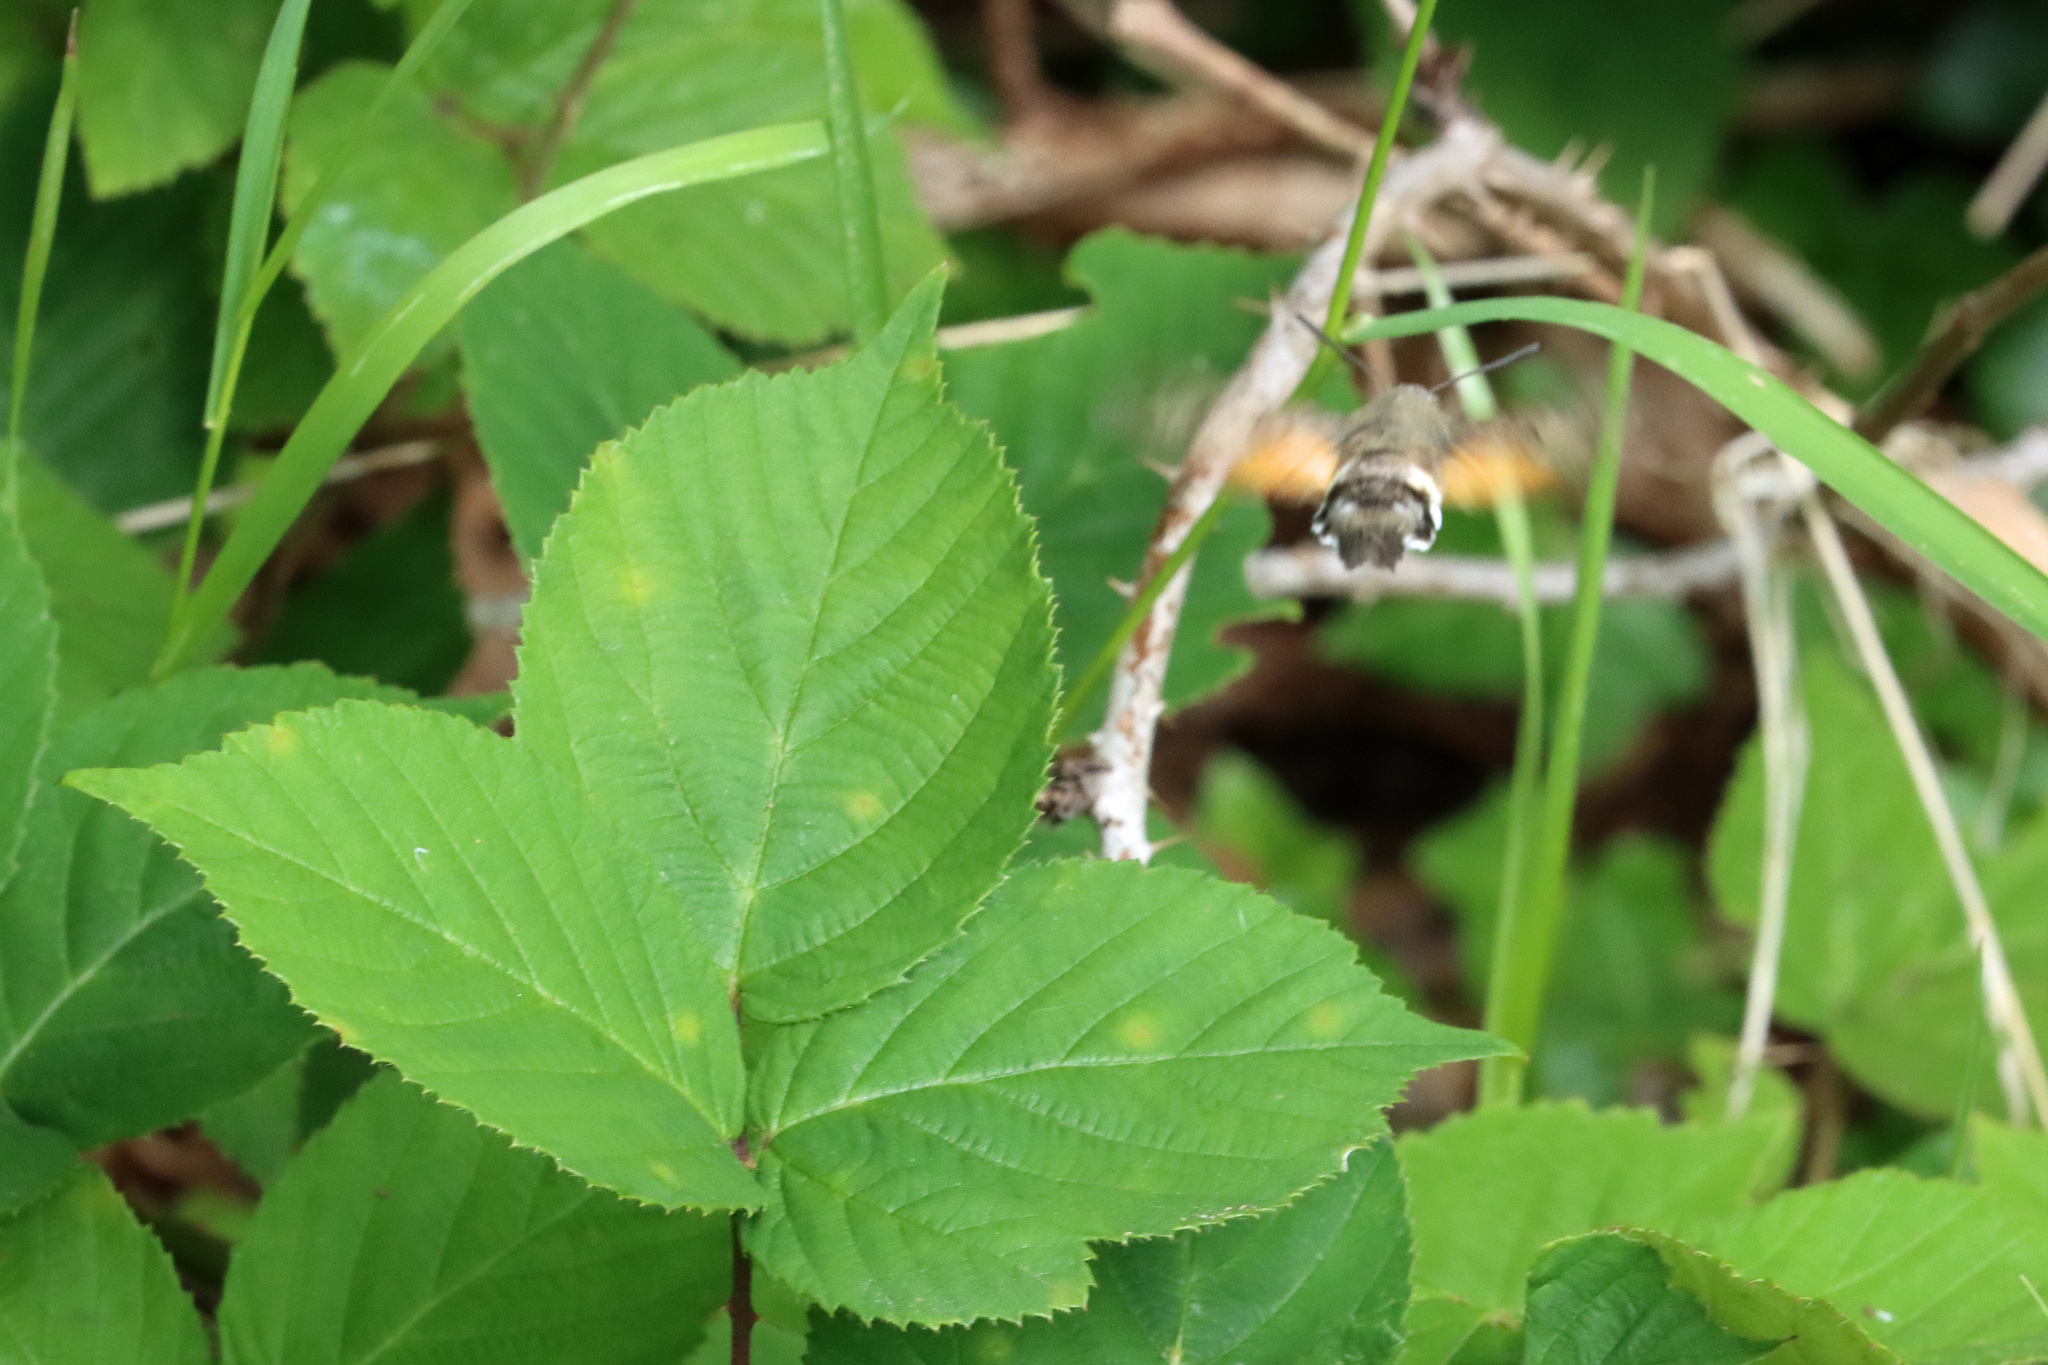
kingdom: Animalia
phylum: Arthropoda
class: Insecta
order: Lepidoptera
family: Sphingidae
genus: Macroglossum
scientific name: Macroglossum stellatarum
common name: Humming-bird hawk-moth
